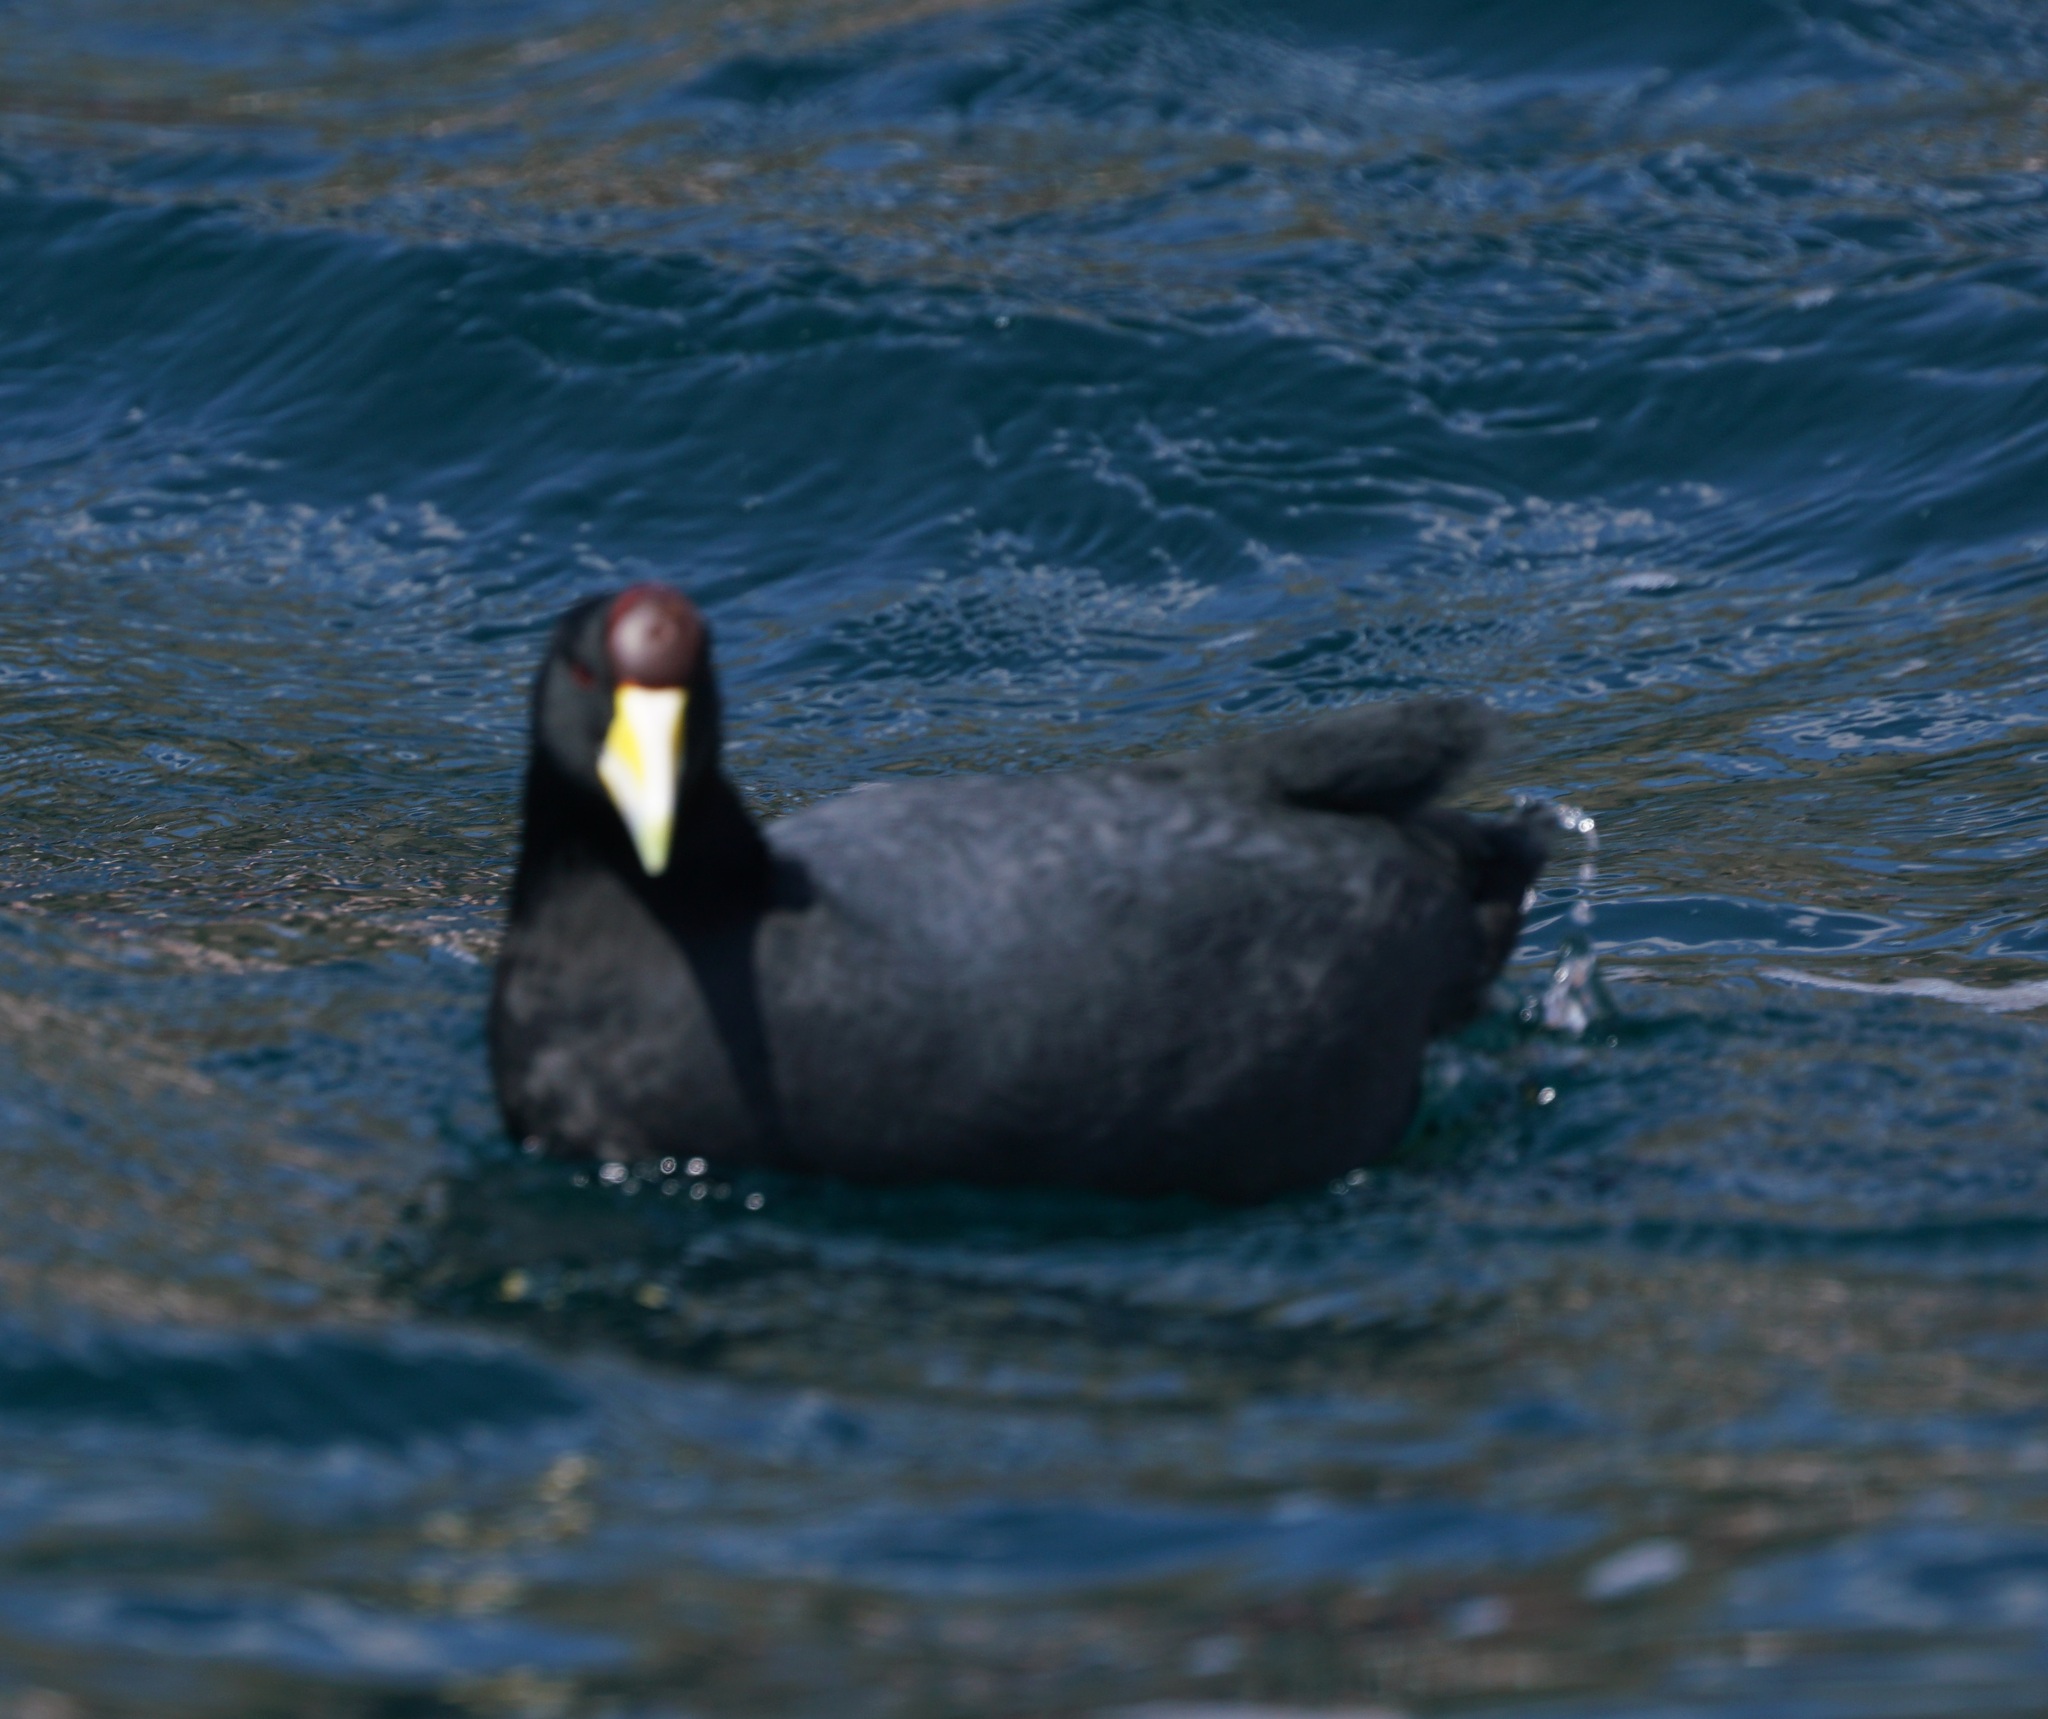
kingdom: Animalia
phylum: Chordata
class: Aves
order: Gruiformes
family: Rallidae
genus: Fulica
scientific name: Fulica ardesiaca
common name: Andean coot
